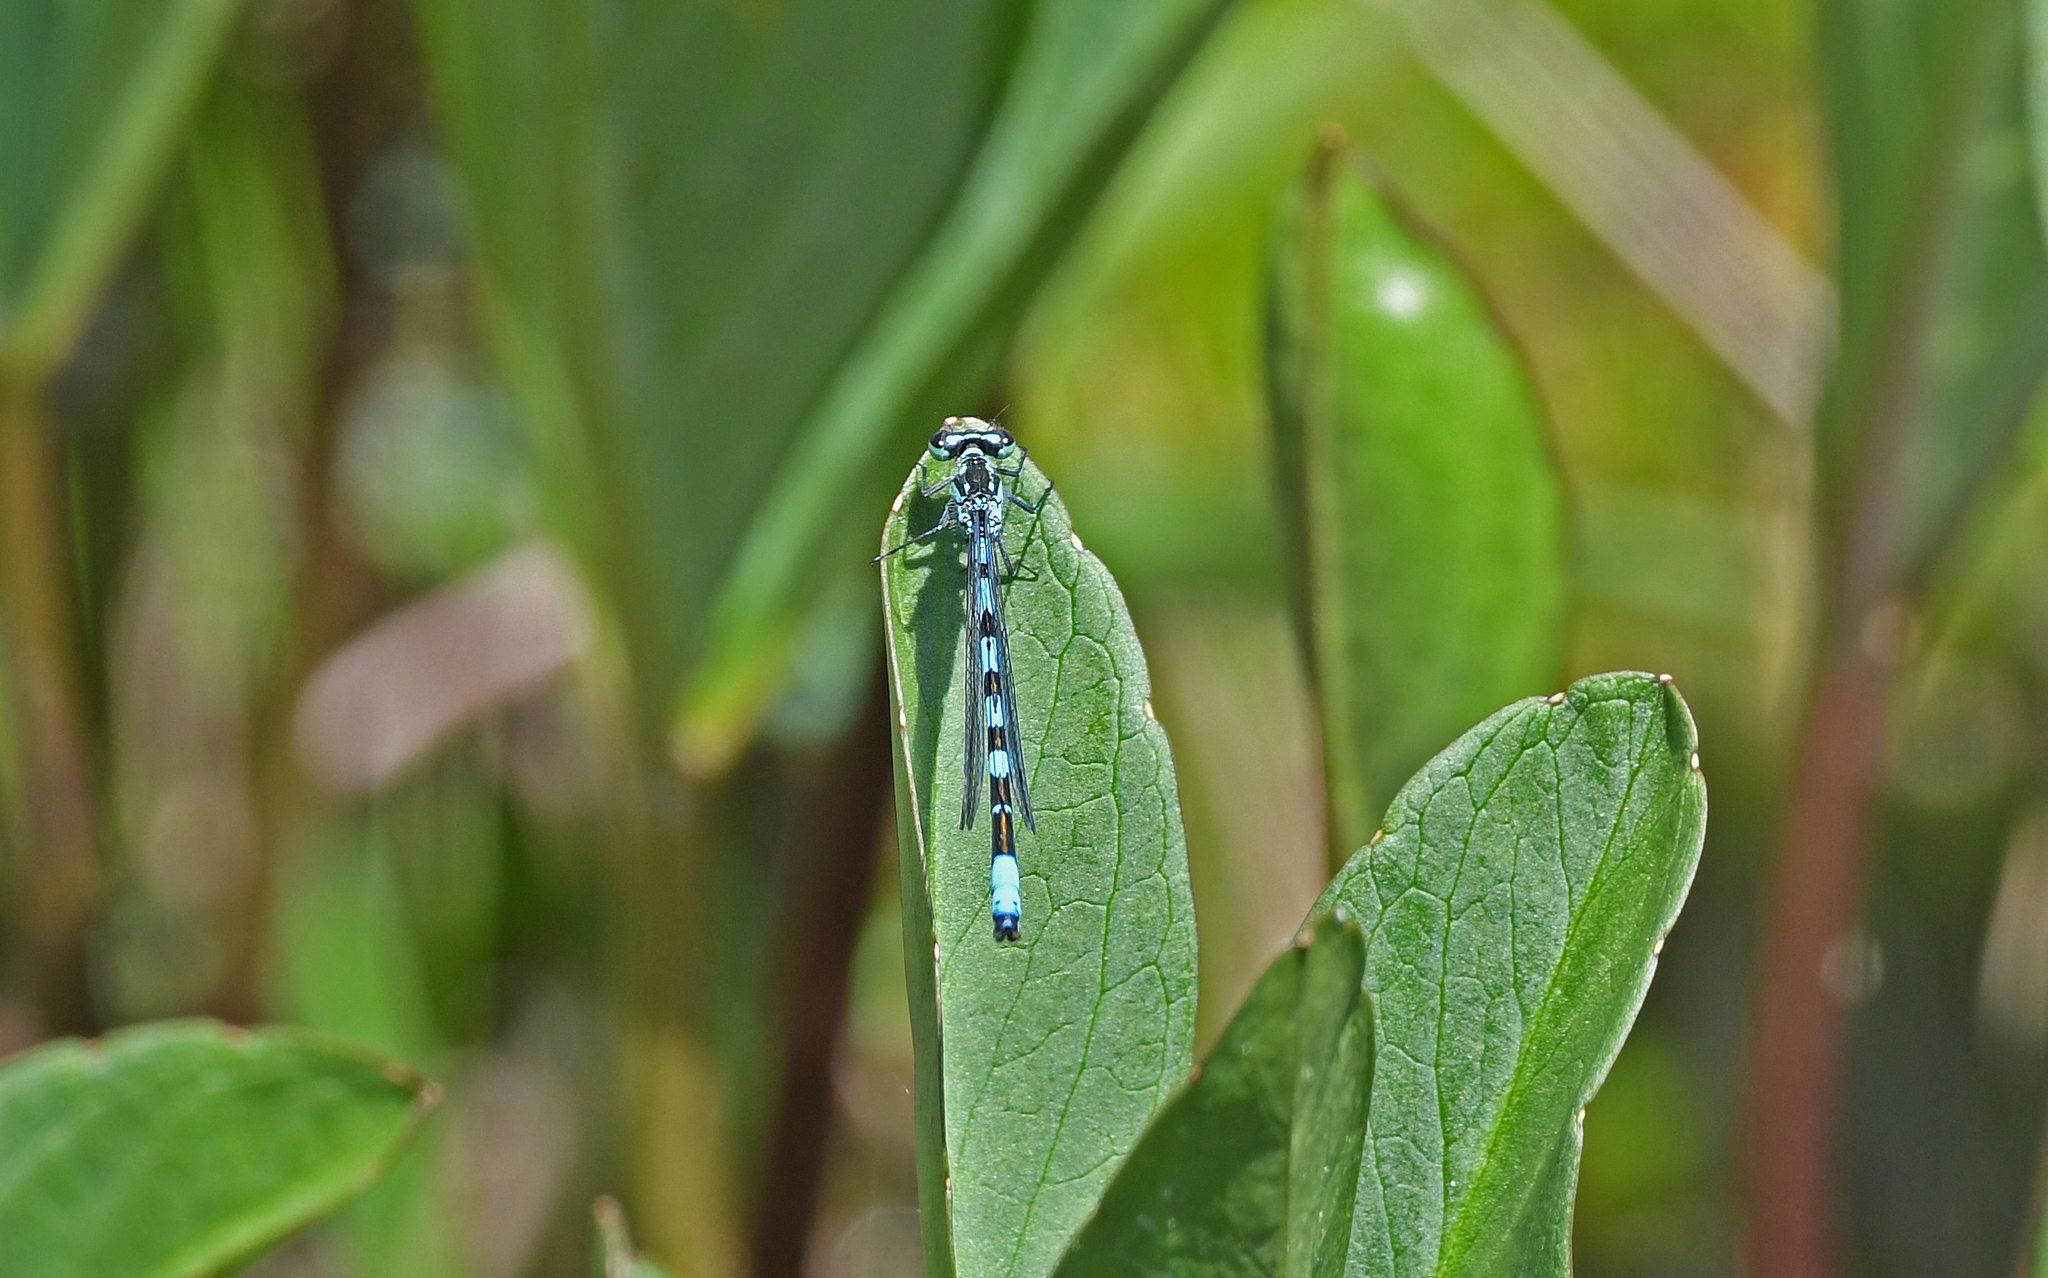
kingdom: Animalia
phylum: Arthropoda
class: Insecta
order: Odonata
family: Coenagrionidae
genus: Coenagrion
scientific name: Coenagrion hastulatum
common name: Spearhead bluet
